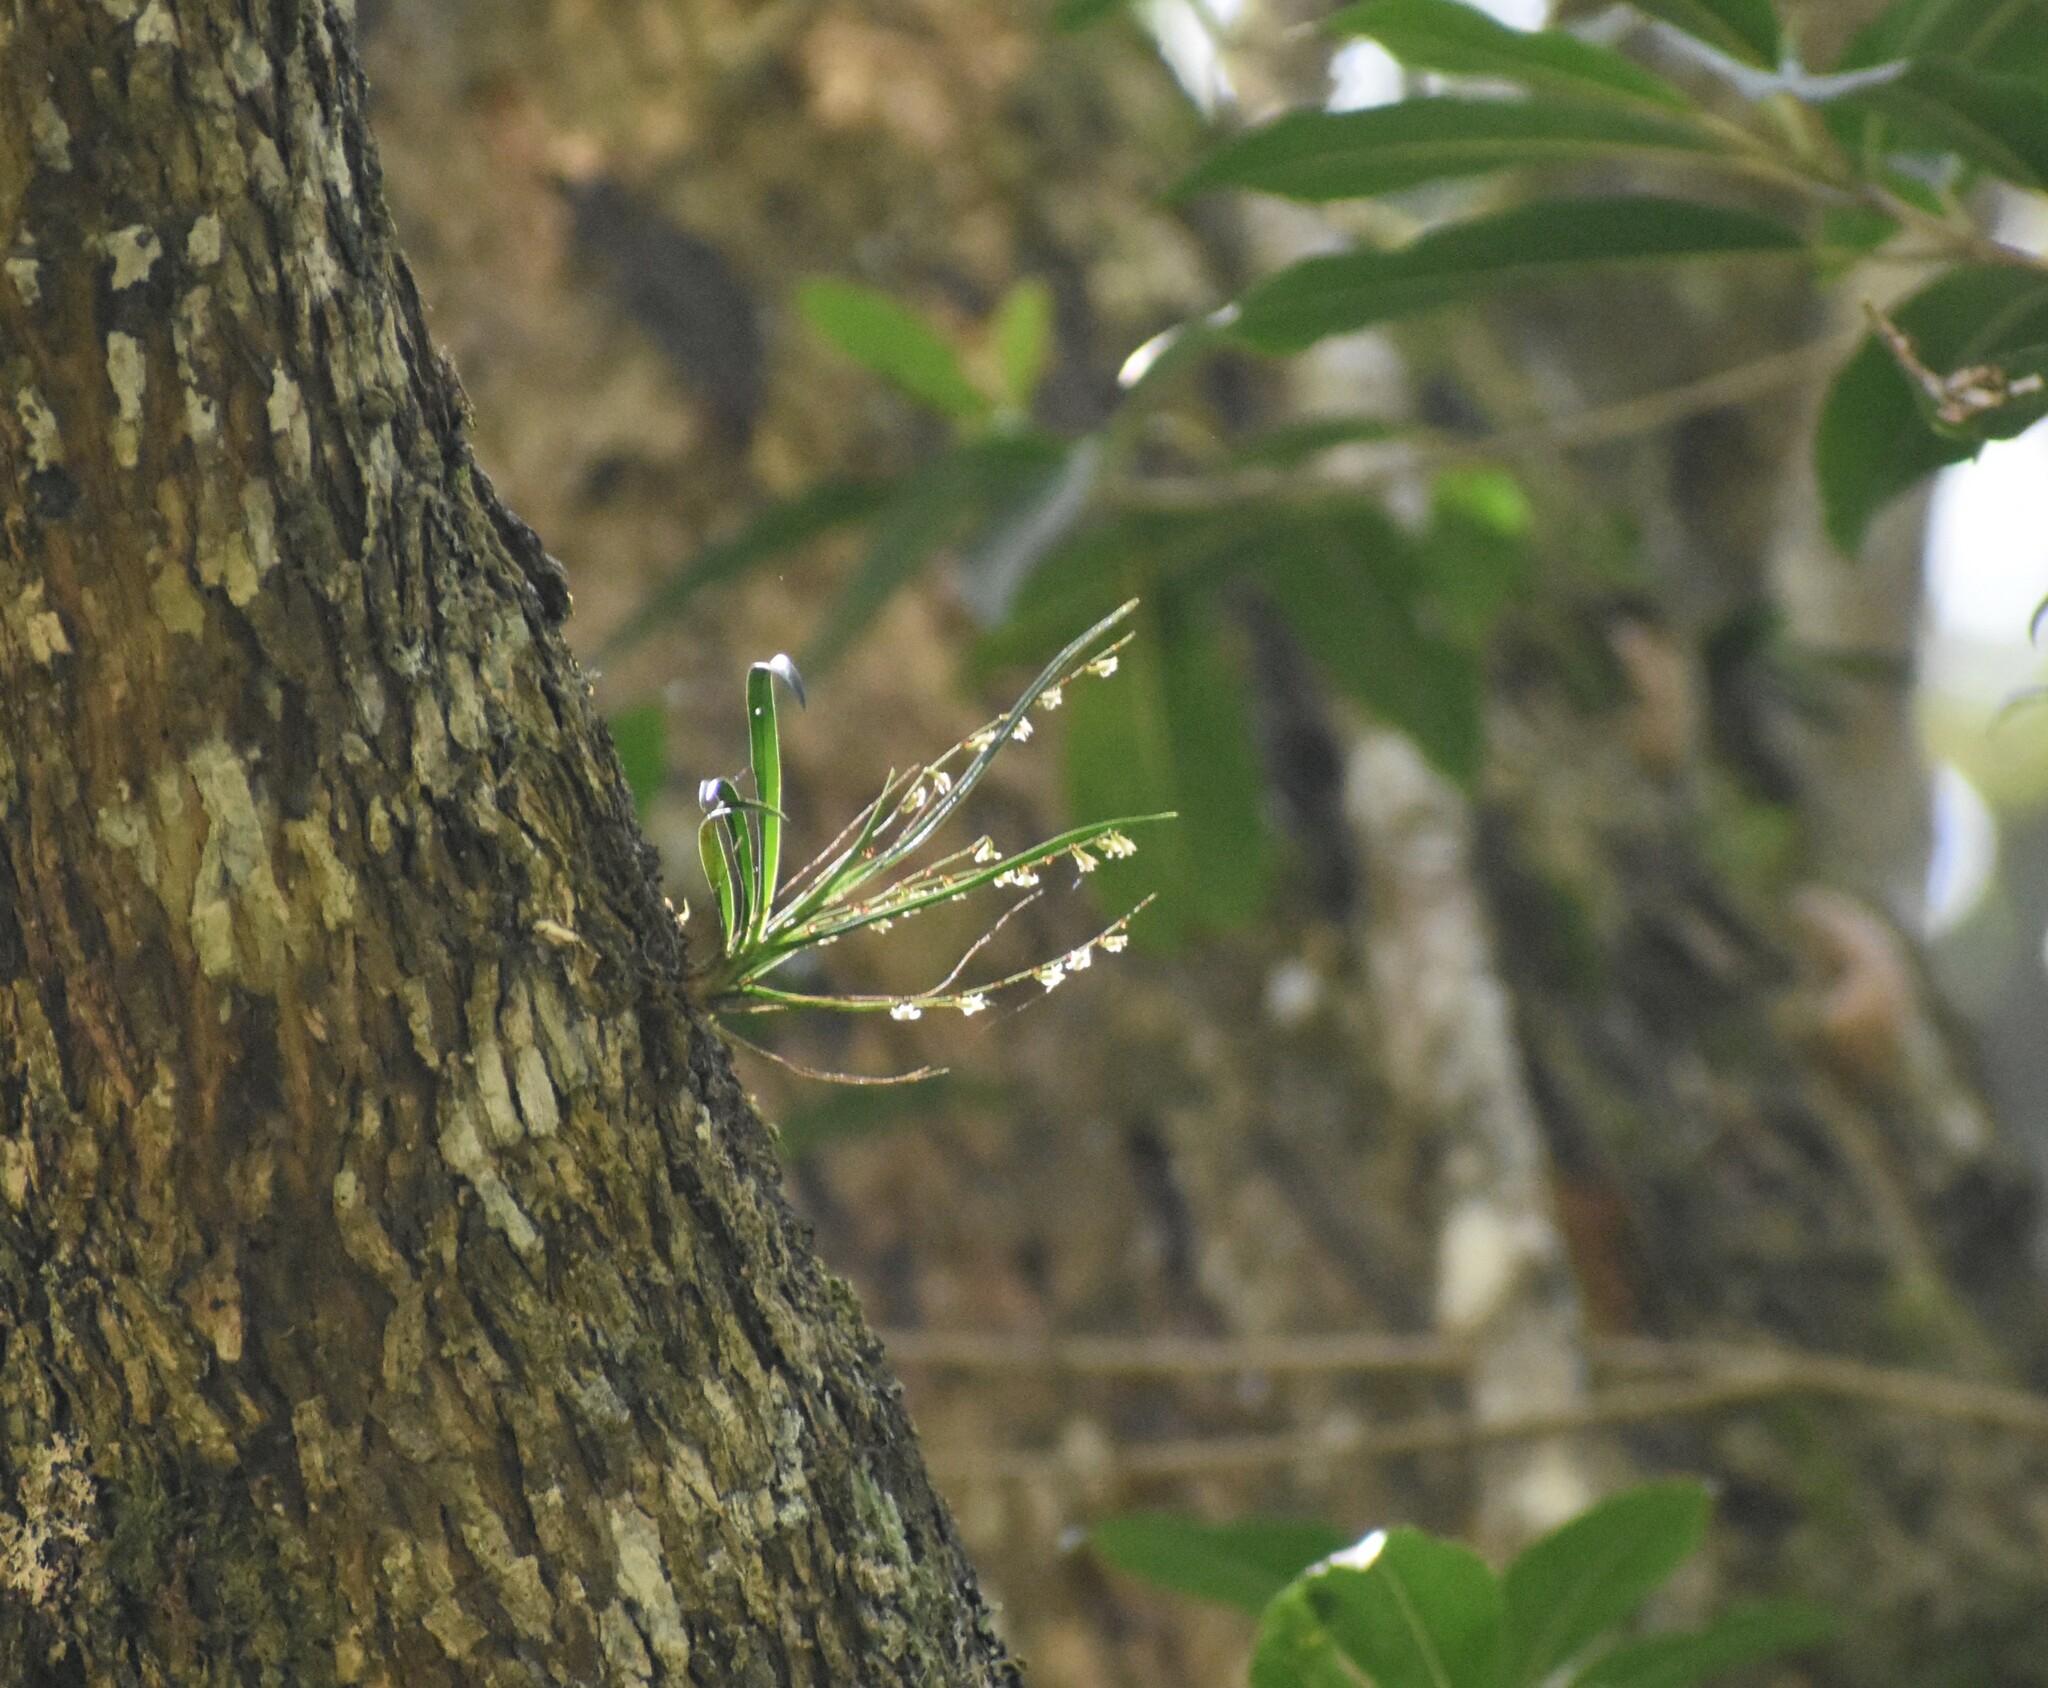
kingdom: Plantae
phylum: Tracheophyta
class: Liliopsida
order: Asparagales
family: Orchidaceae
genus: Angraecum
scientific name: Angraecum pusillum
